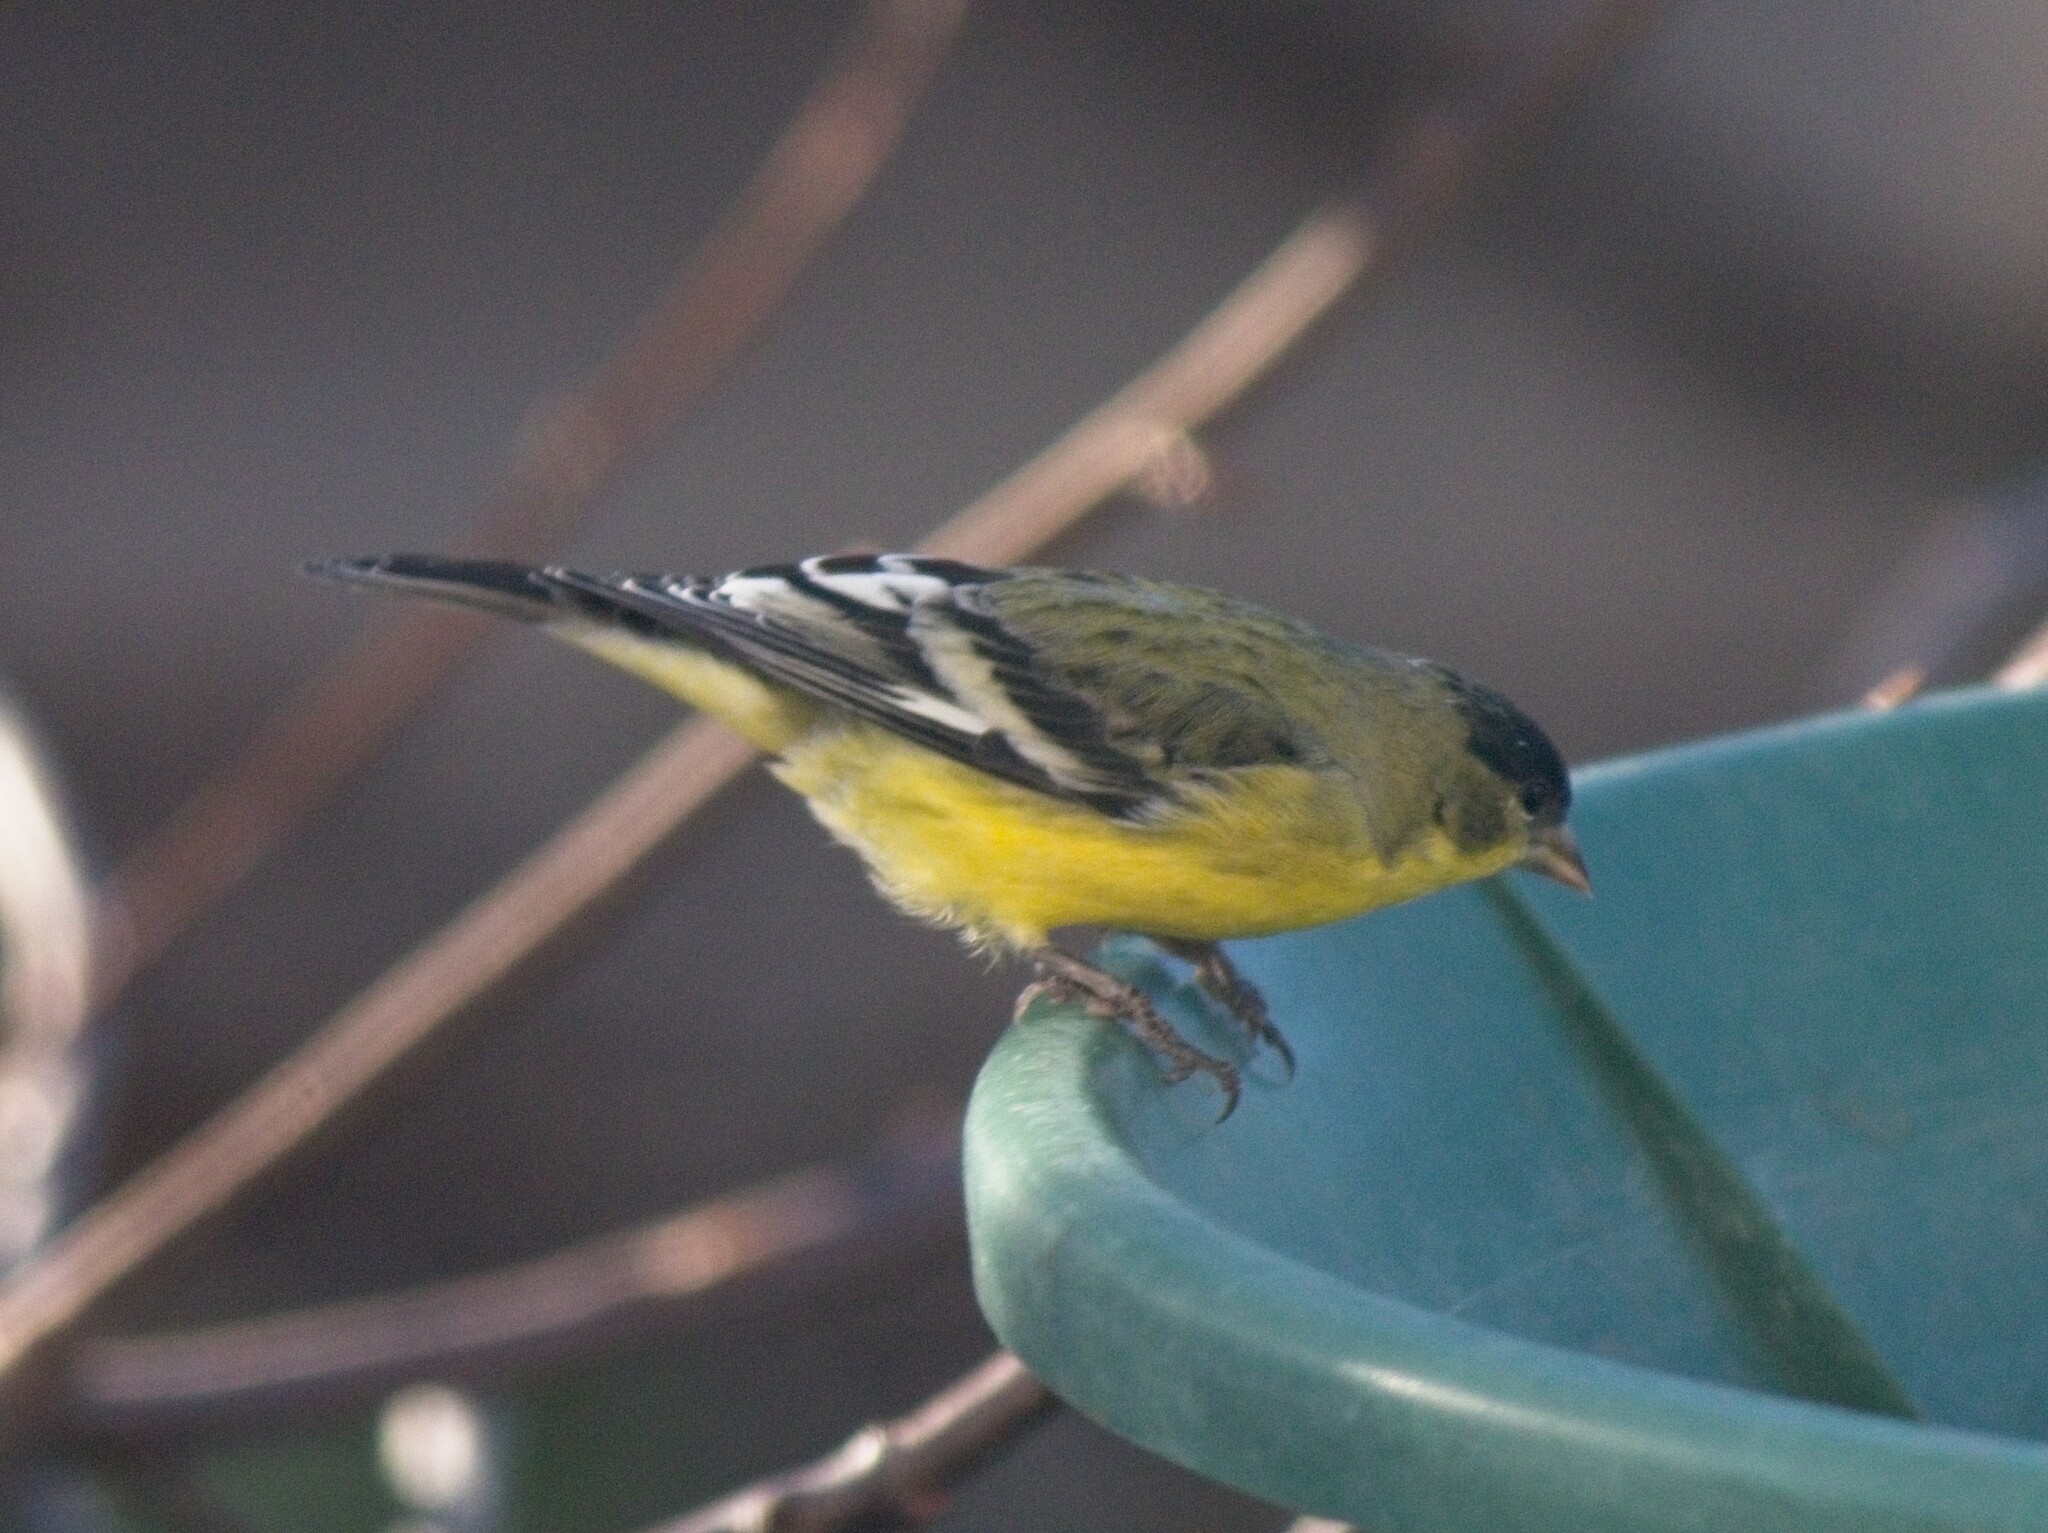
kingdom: Animalia
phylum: Chordata
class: Aves
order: Passeriformes
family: Fringillidae
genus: Spinus
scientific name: Spinus psaltria
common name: Lesser goldfinch
